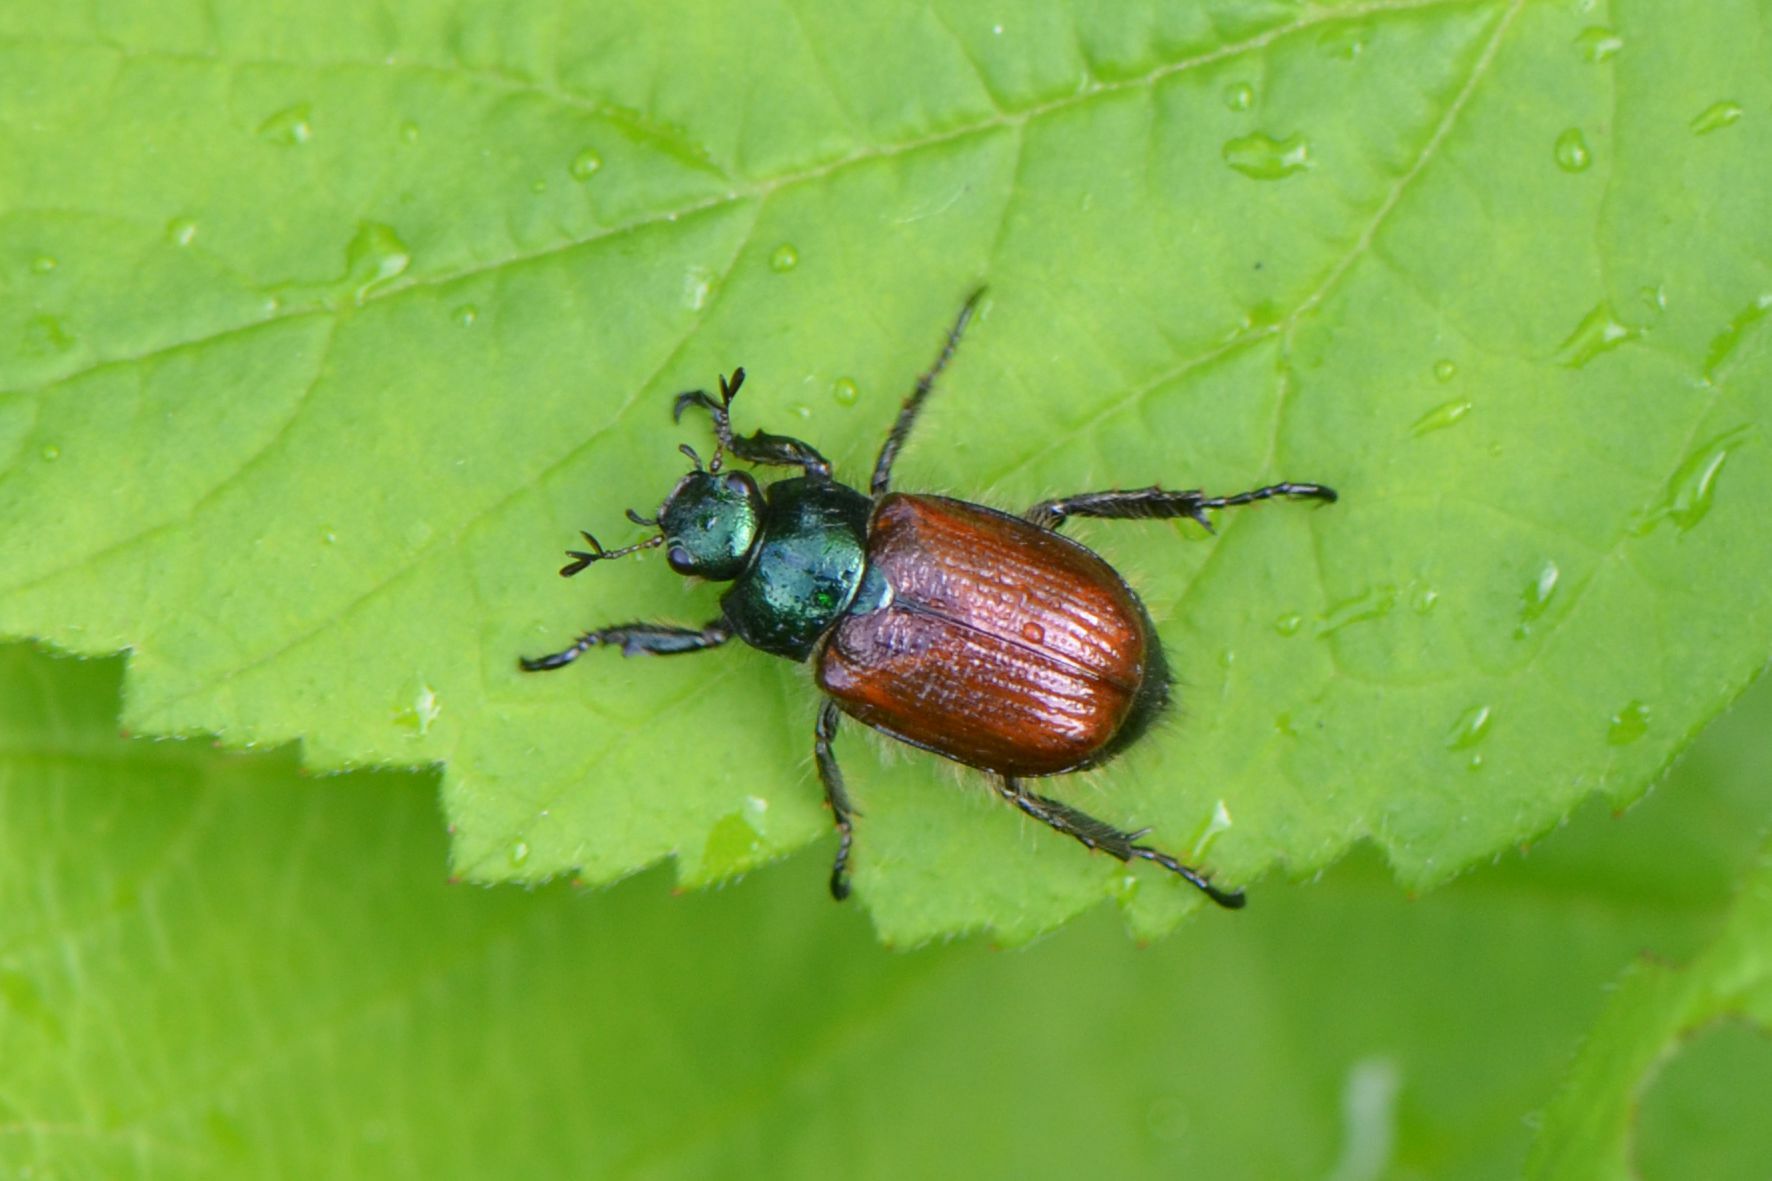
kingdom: Animalia
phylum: Arthropoda
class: Insecta
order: Coleoptera
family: Scarabaeidae
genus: Phyllopertha
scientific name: Phyllopertha horticola
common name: Garden chafer
